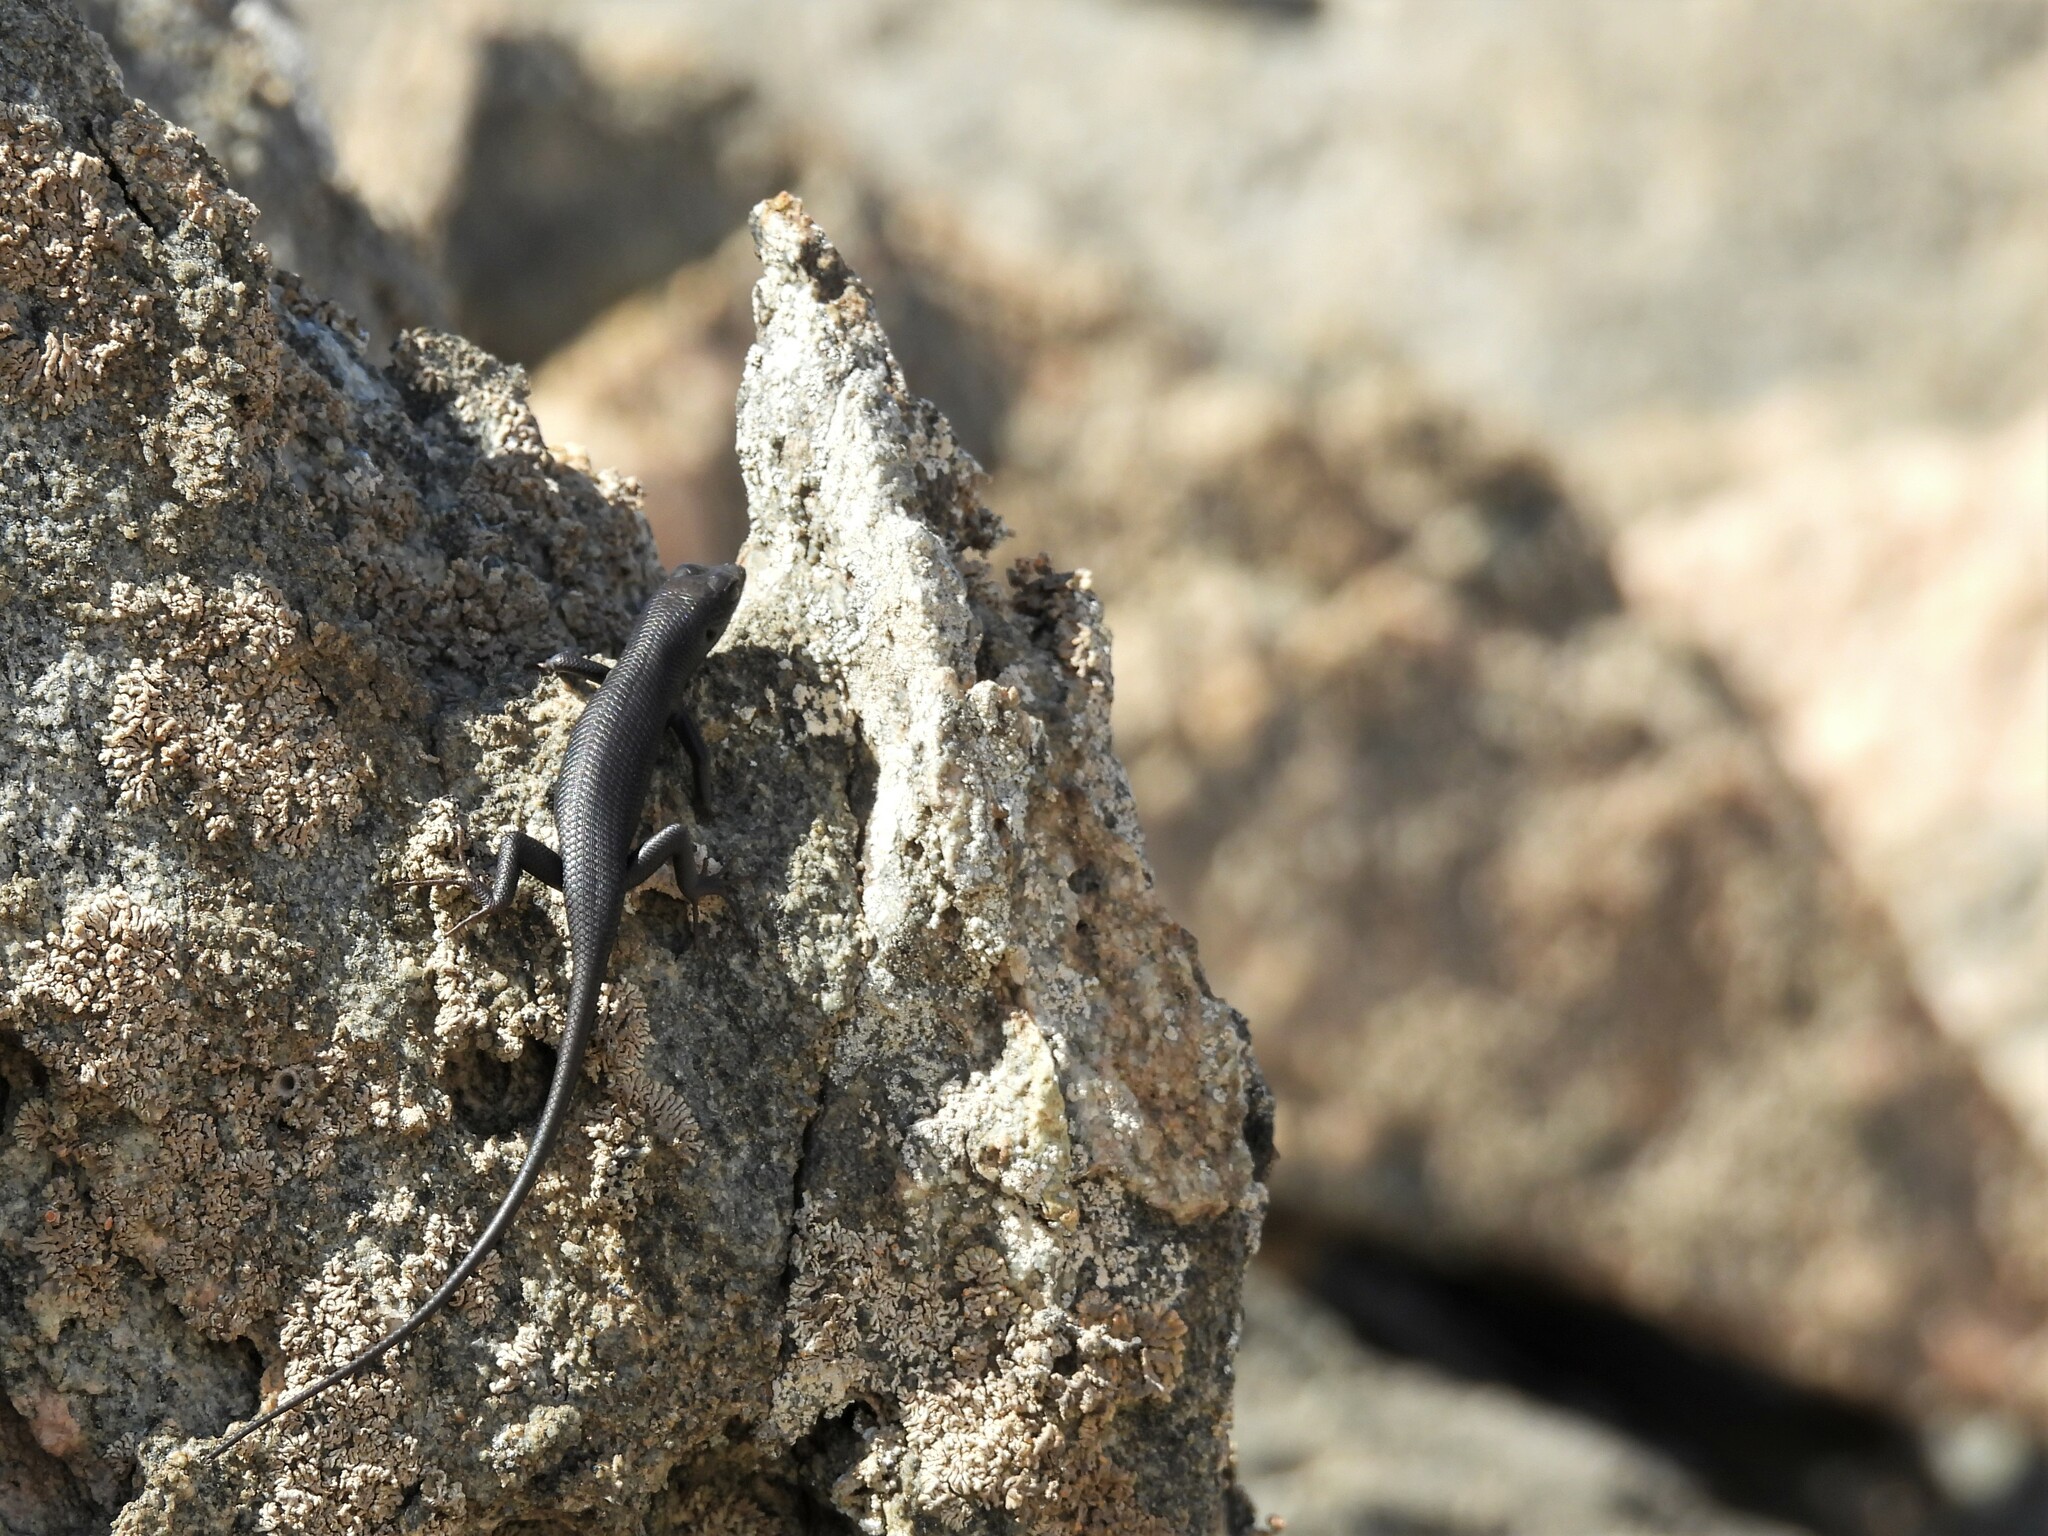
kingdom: Animalia
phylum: Chordata
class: Squamata
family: Scincidae
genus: Trachylepis
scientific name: Trachylepis sulcata
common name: Western rock skink
